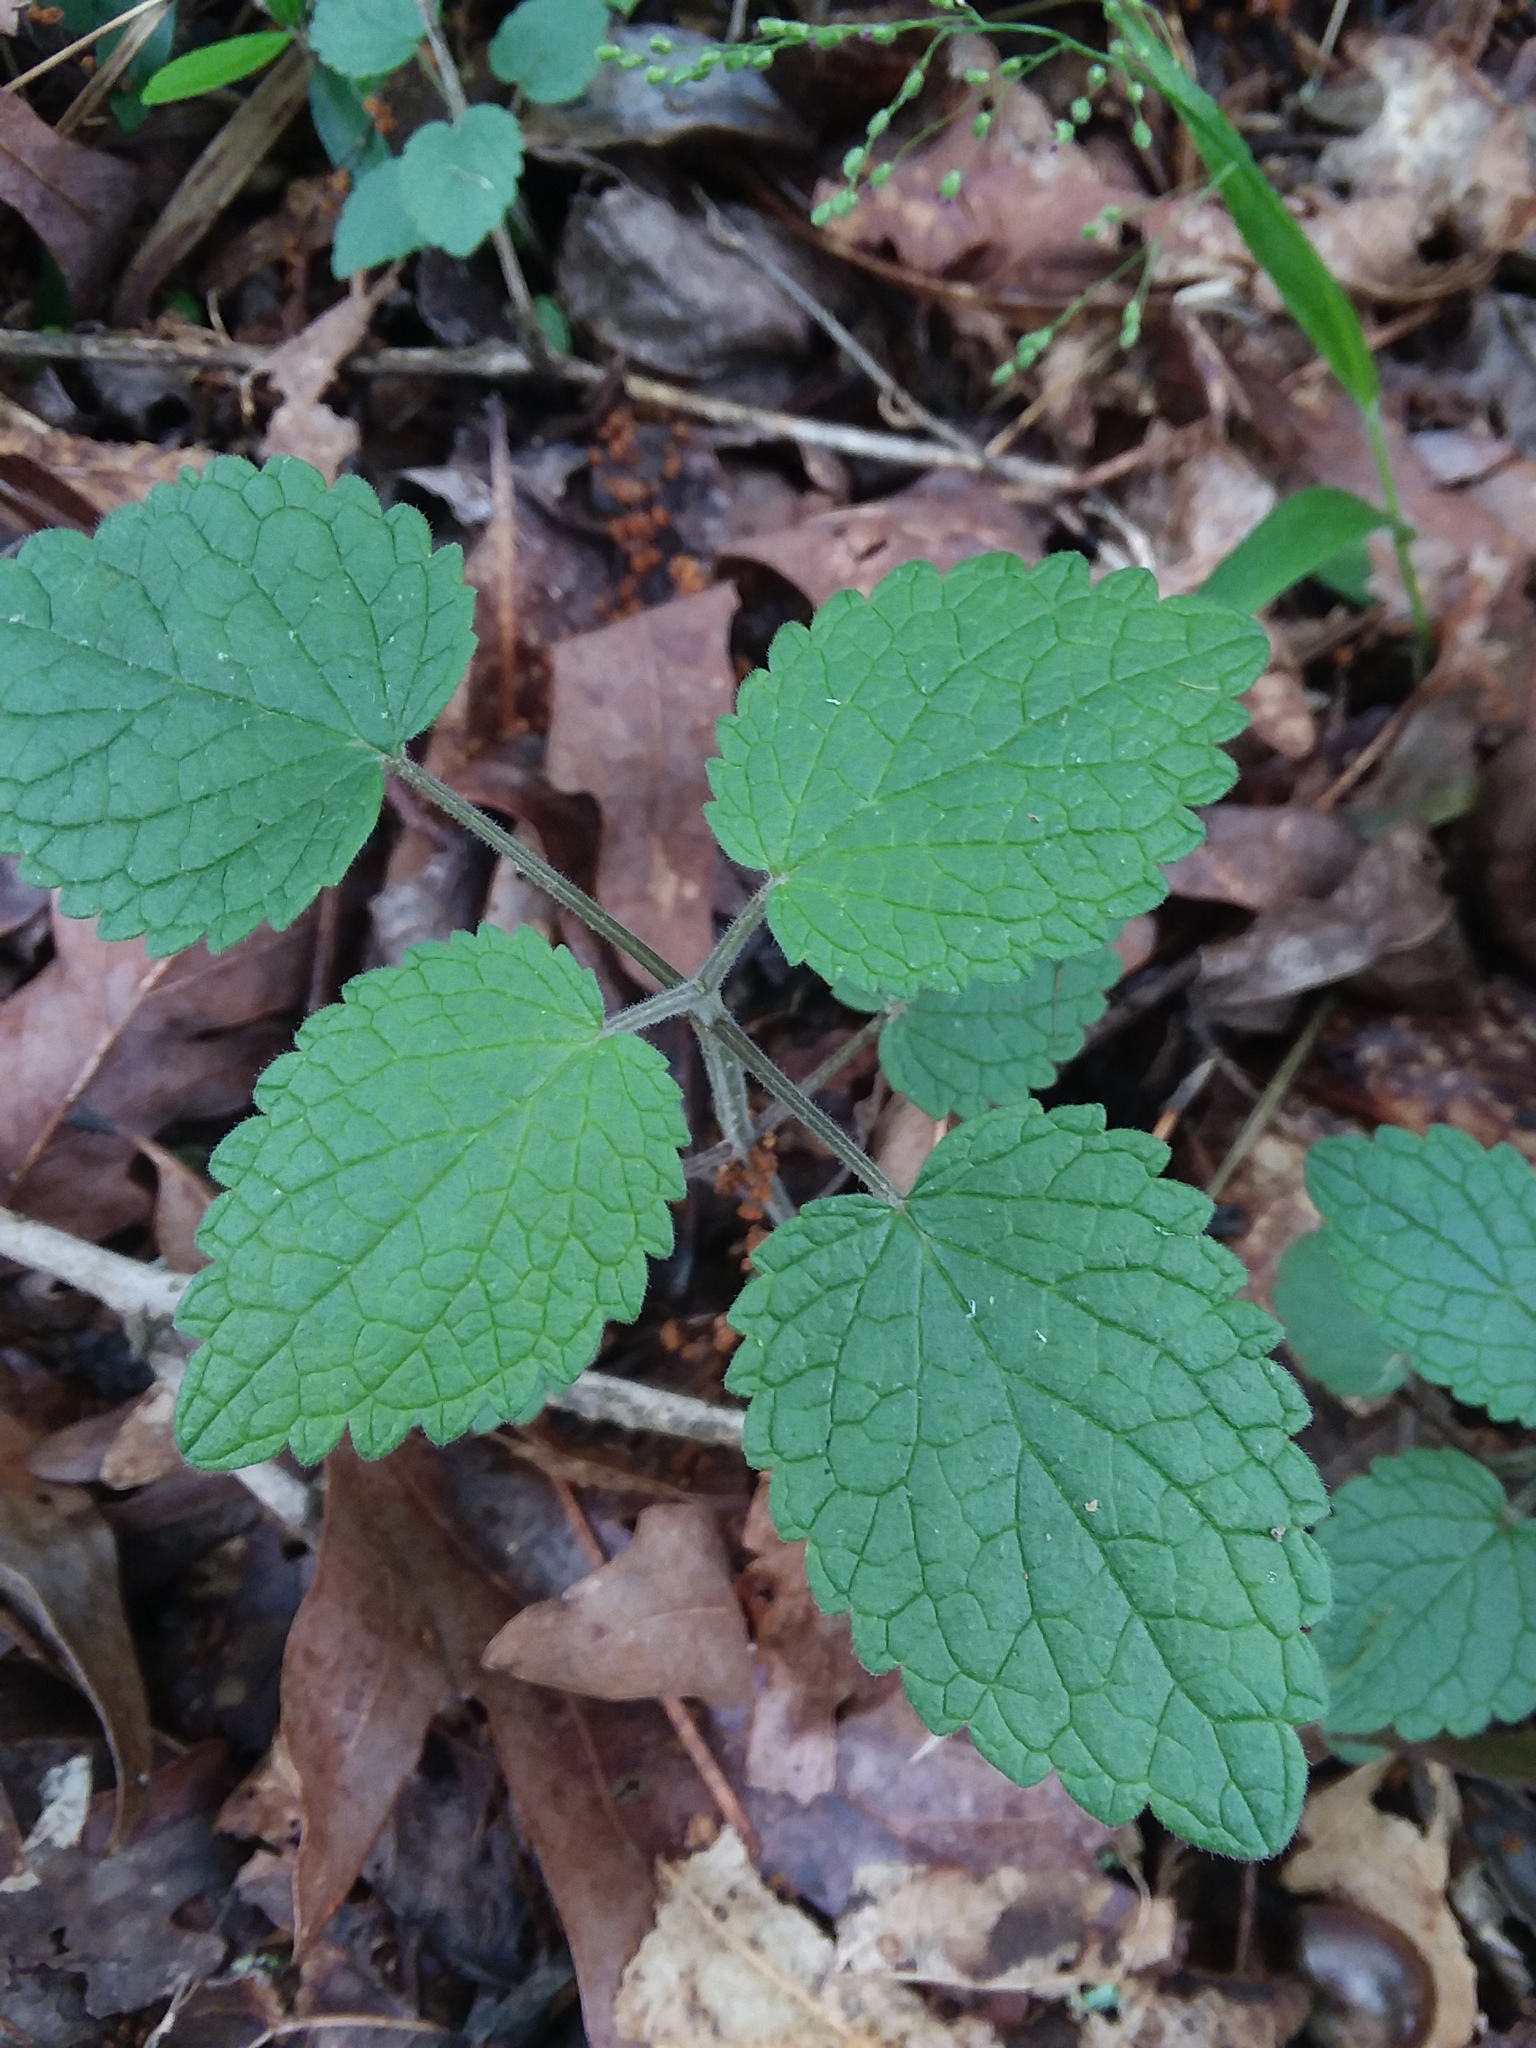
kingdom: Plantae
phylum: Tracheophyta
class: Magnoliopsida
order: Lamiales
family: Lamiaceae
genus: Scutellaria
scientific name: Scutellaria ovata
